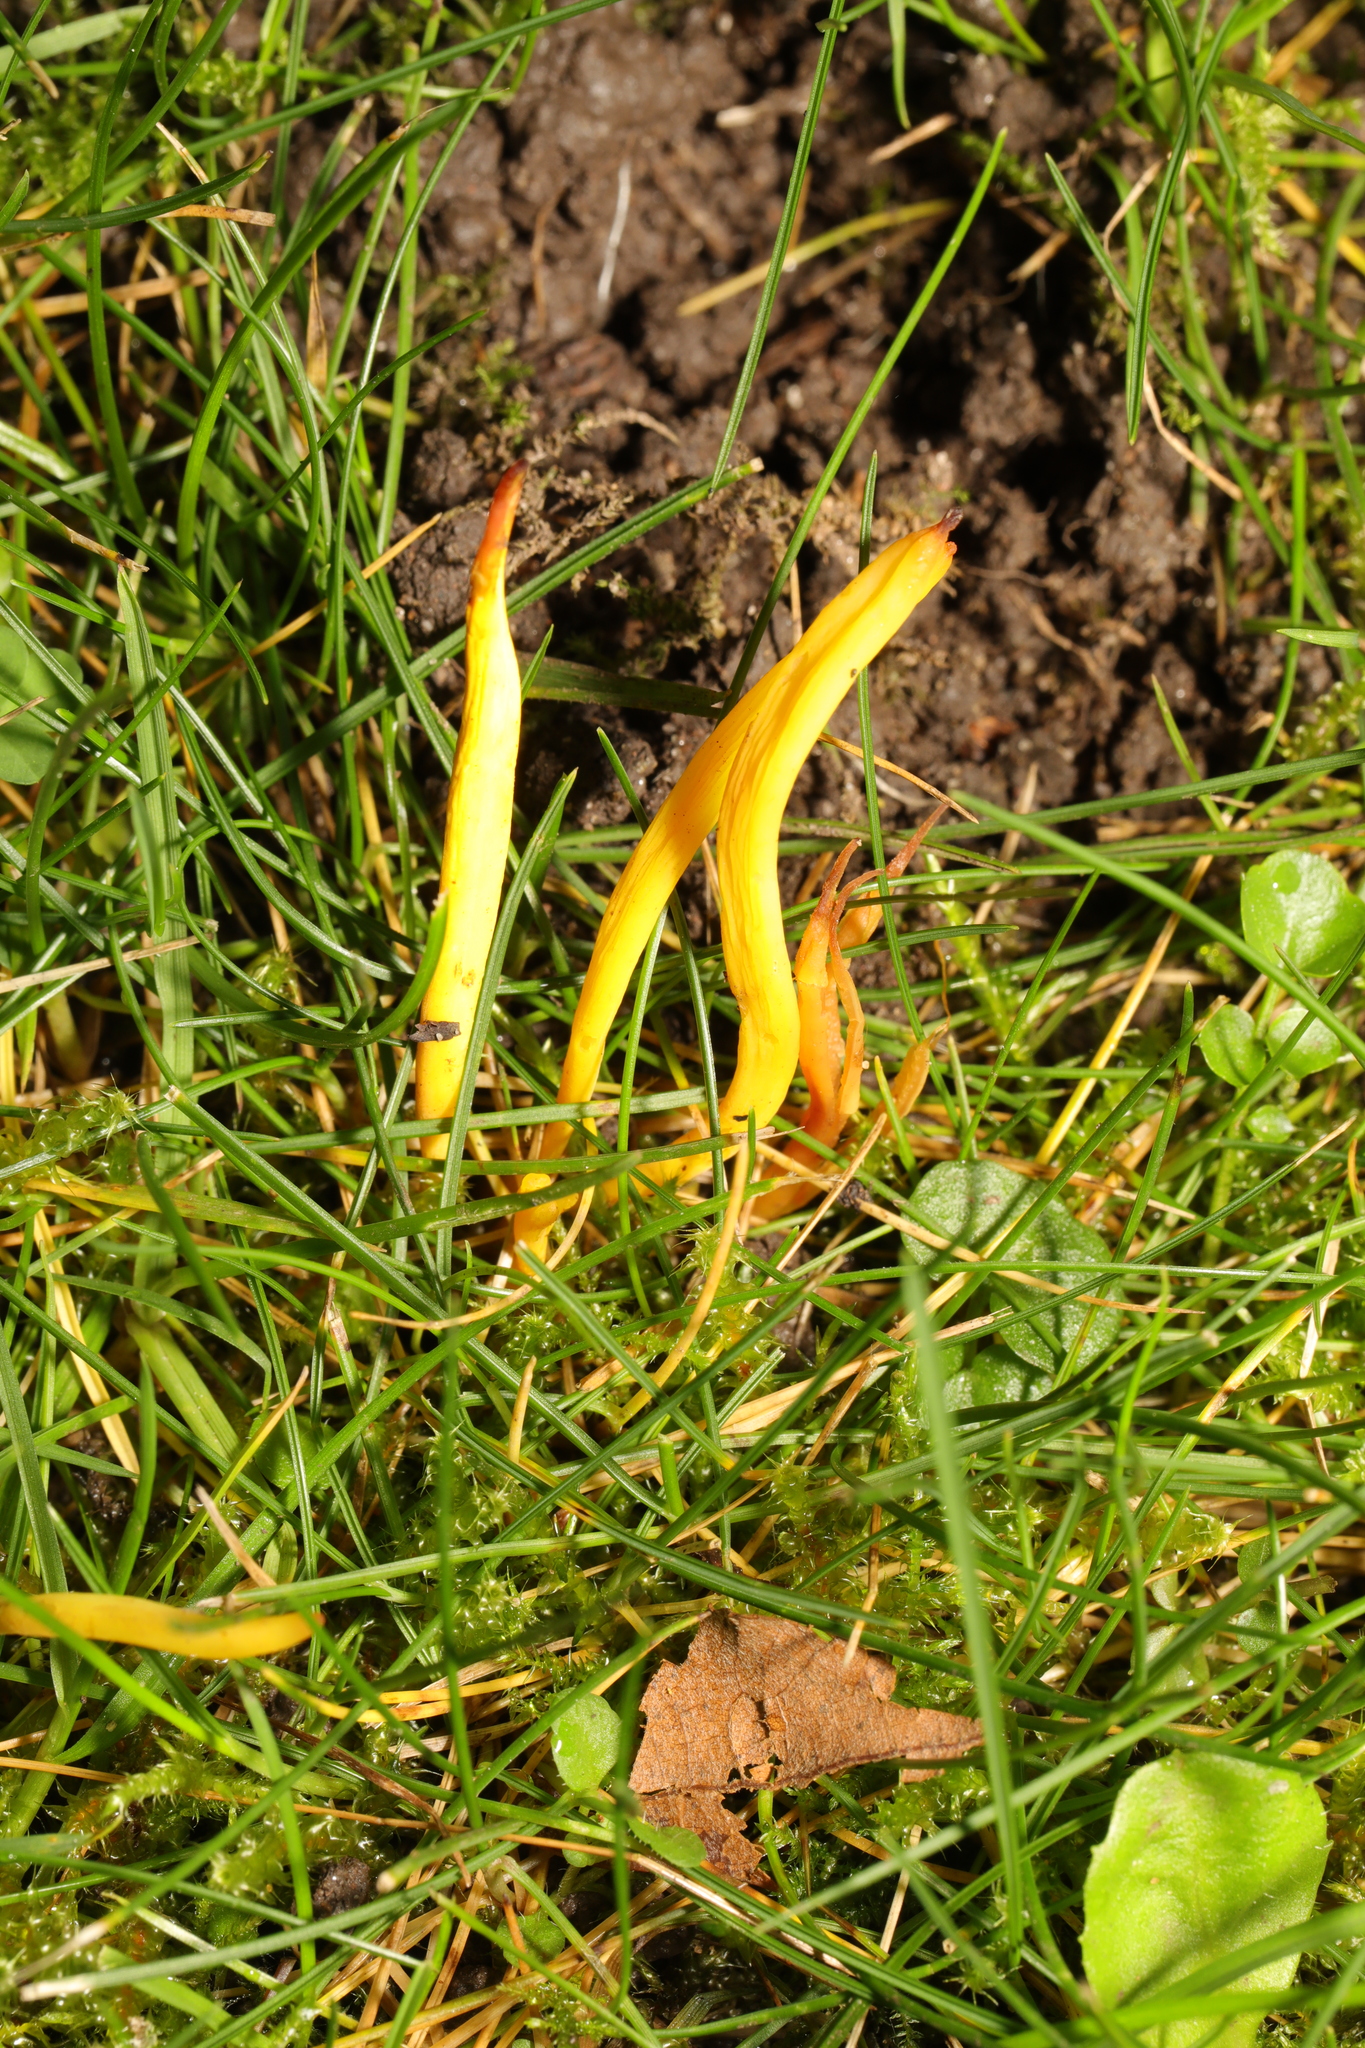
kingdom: Fungi
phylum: Basidiomycota
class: Agaricomycetes
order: Agaricales
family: Clavariaceae
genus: Clavulinopsis
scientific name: Clavulinopsis helvola
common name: Yellow club
